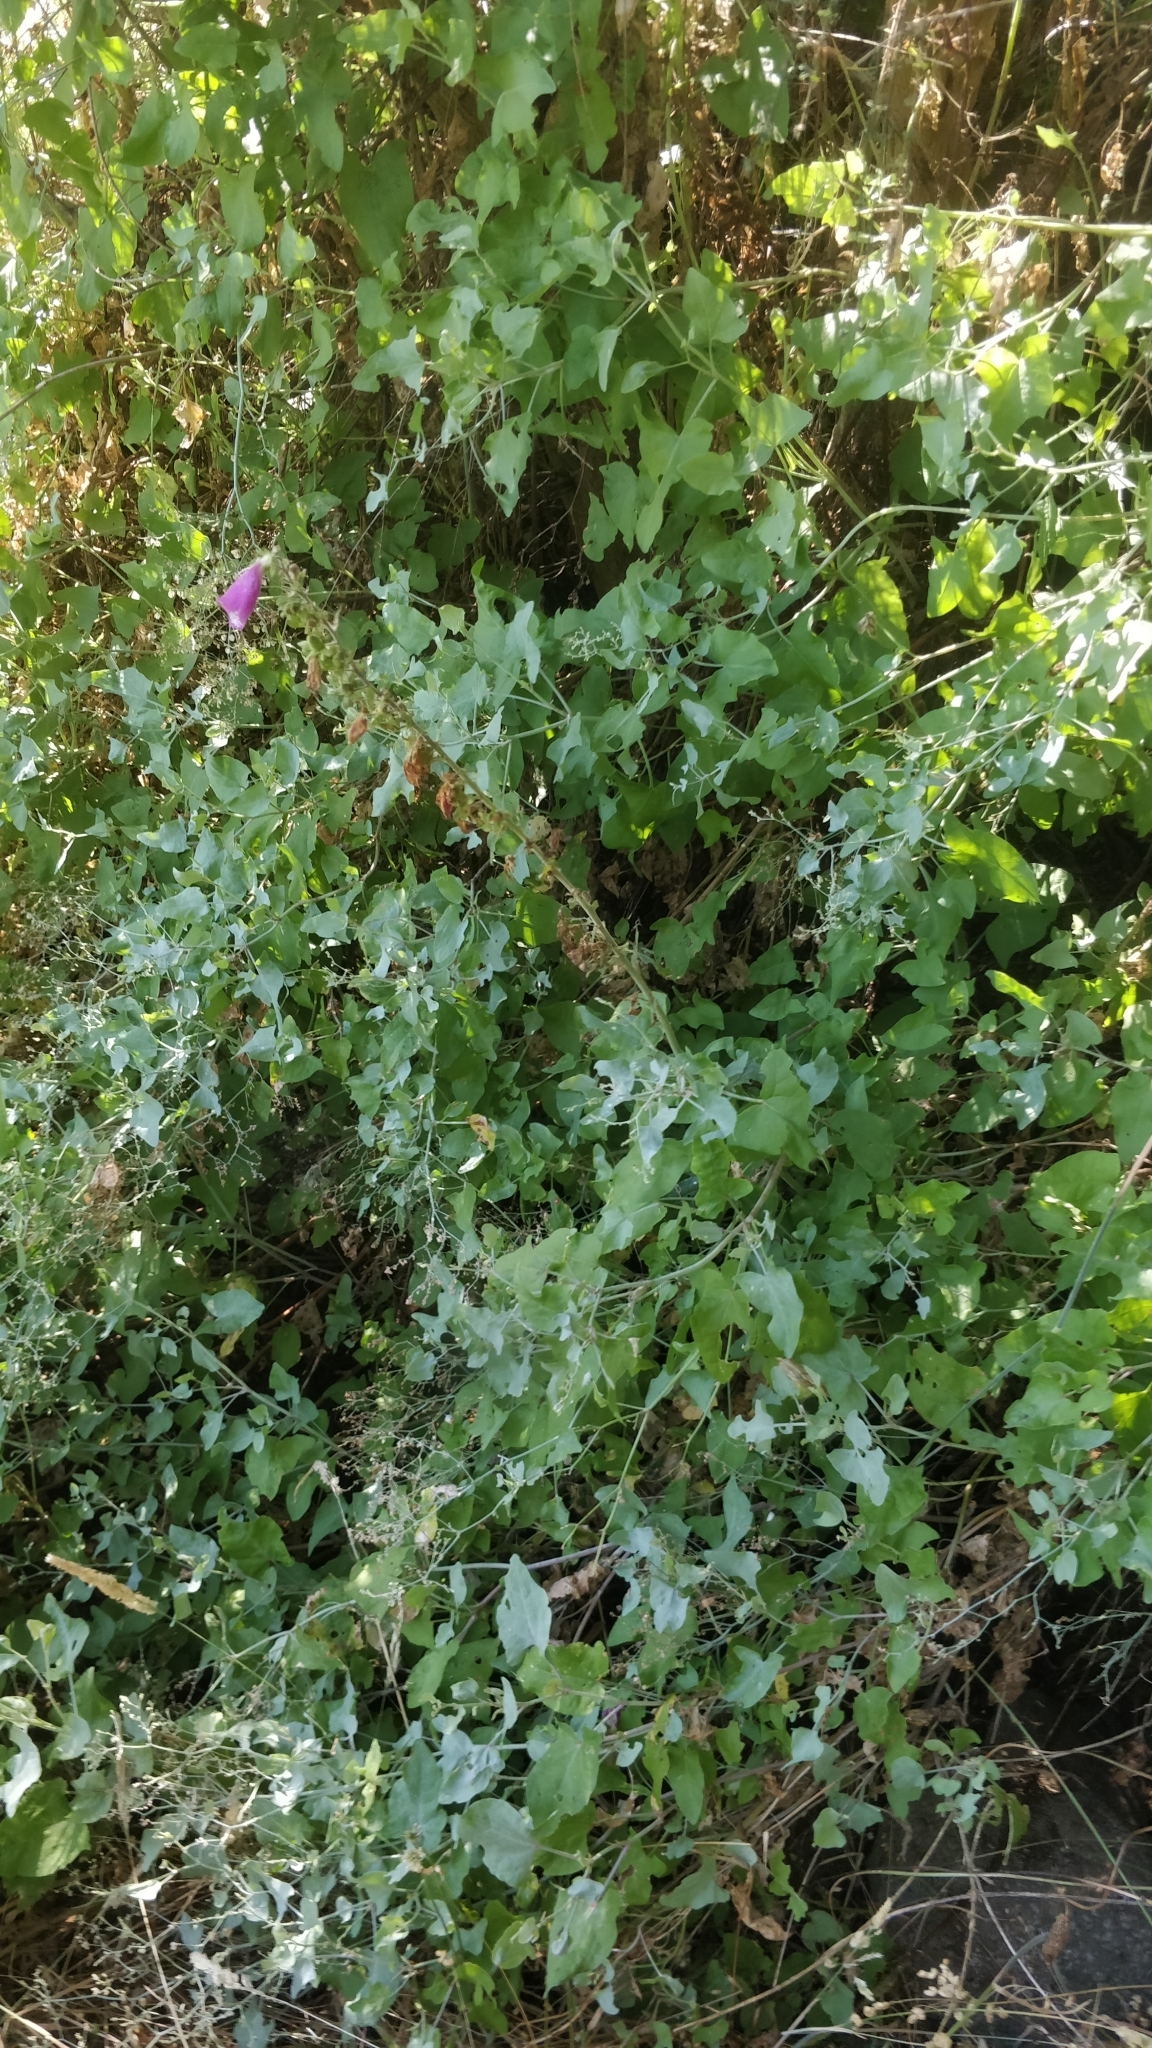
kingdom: Plantae
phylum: Tracheophyta
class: Magnoliopsida
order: Caryophyllales
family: Polygonaceae
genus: Rumex
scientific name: Rumex maderensis
